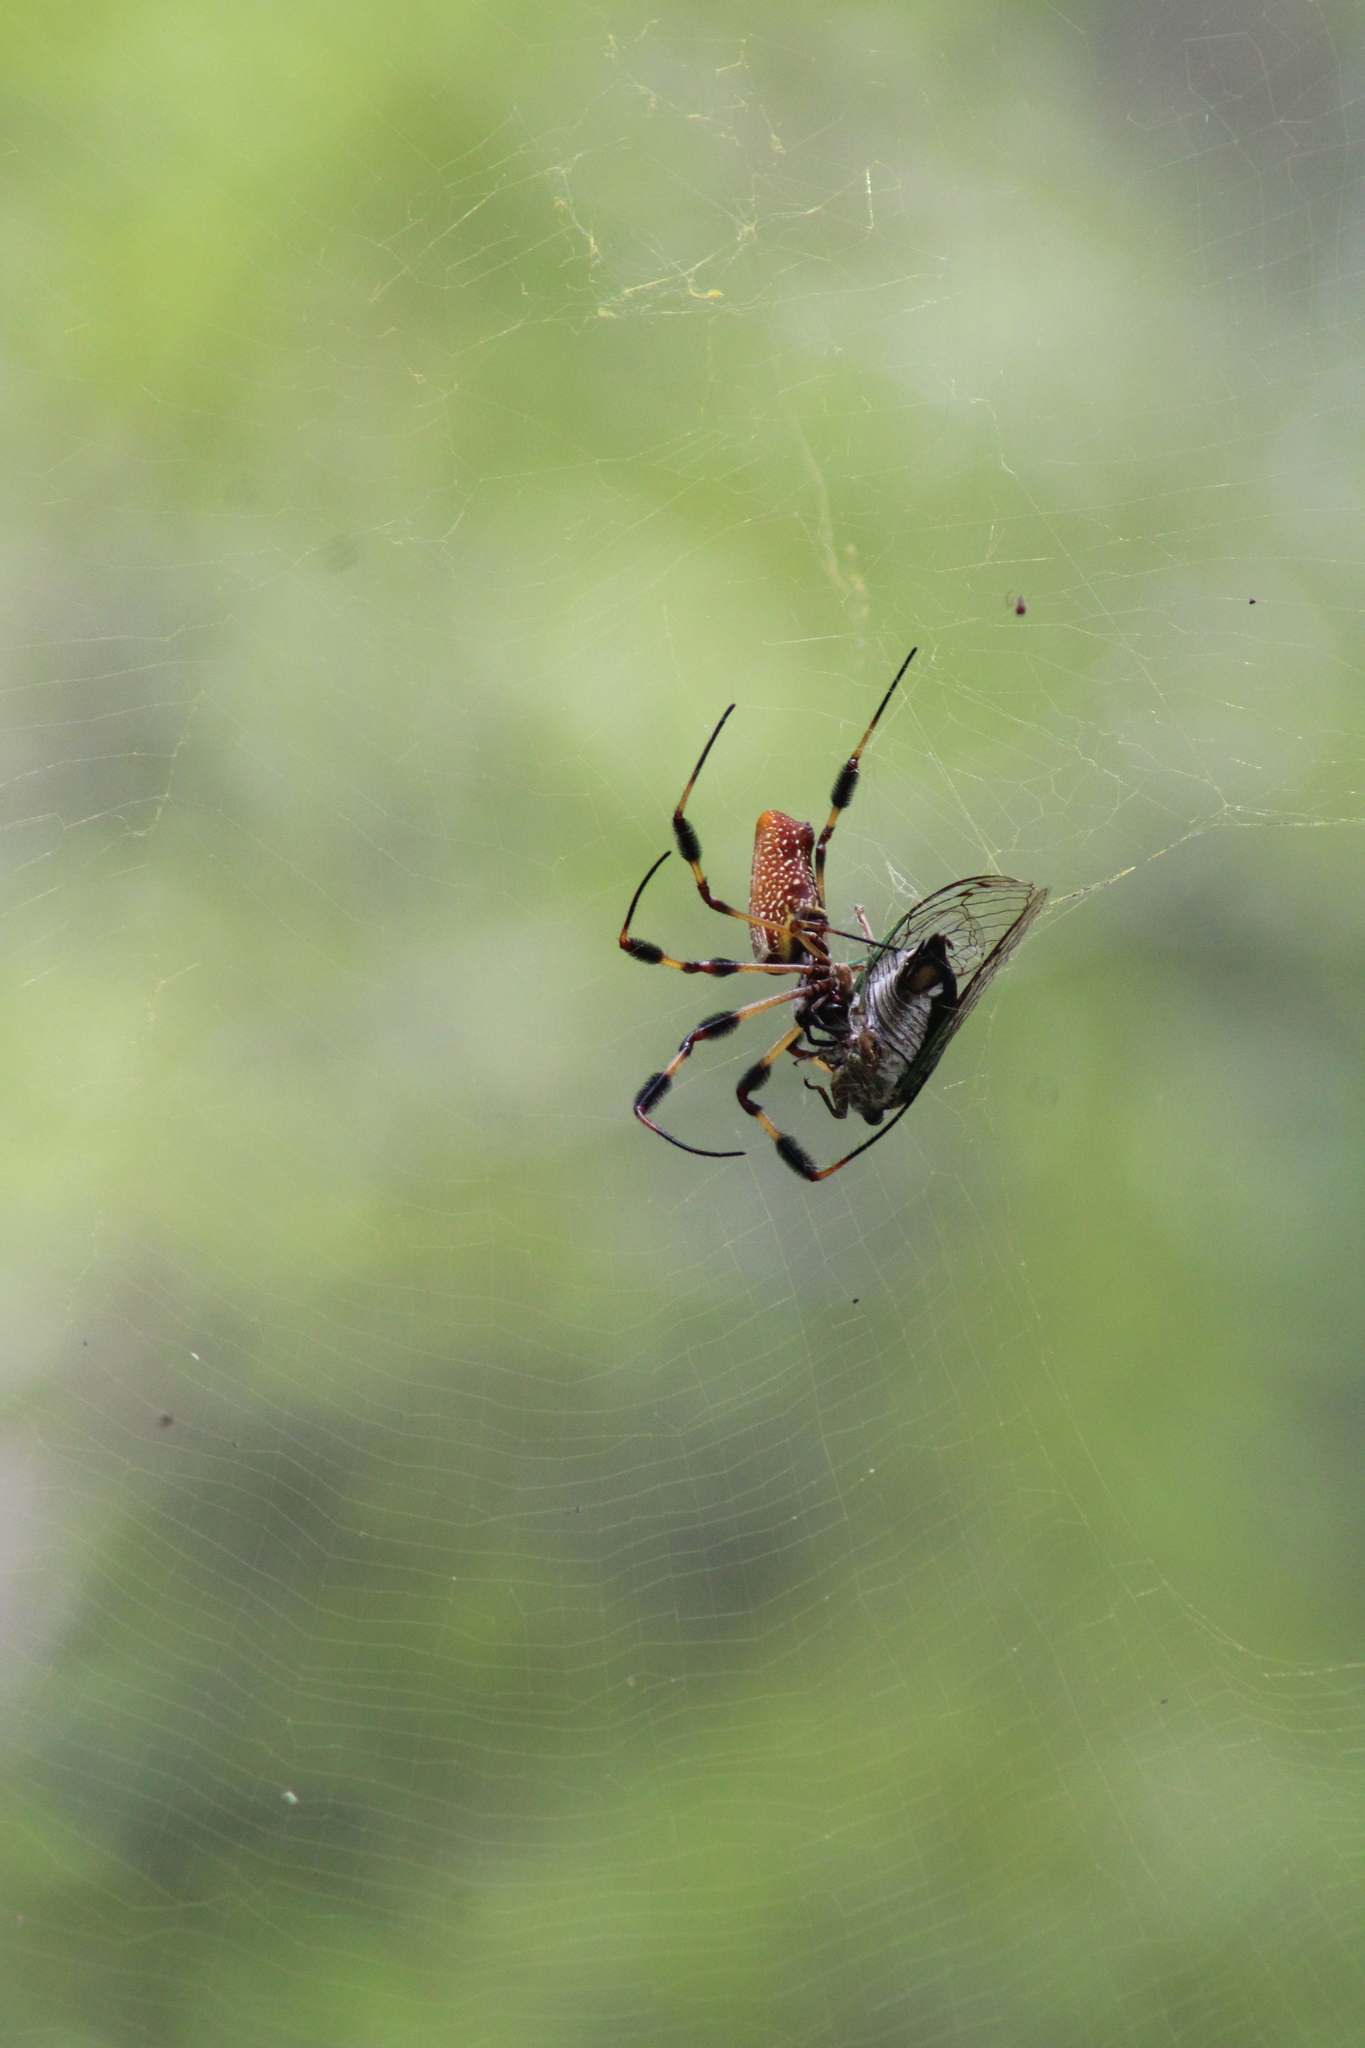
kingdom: Animalia
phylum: Arthropoda
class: Arachnida
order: Araneae
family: Araneidae
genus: Trichonephila
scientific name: Trichonephila clavipes
